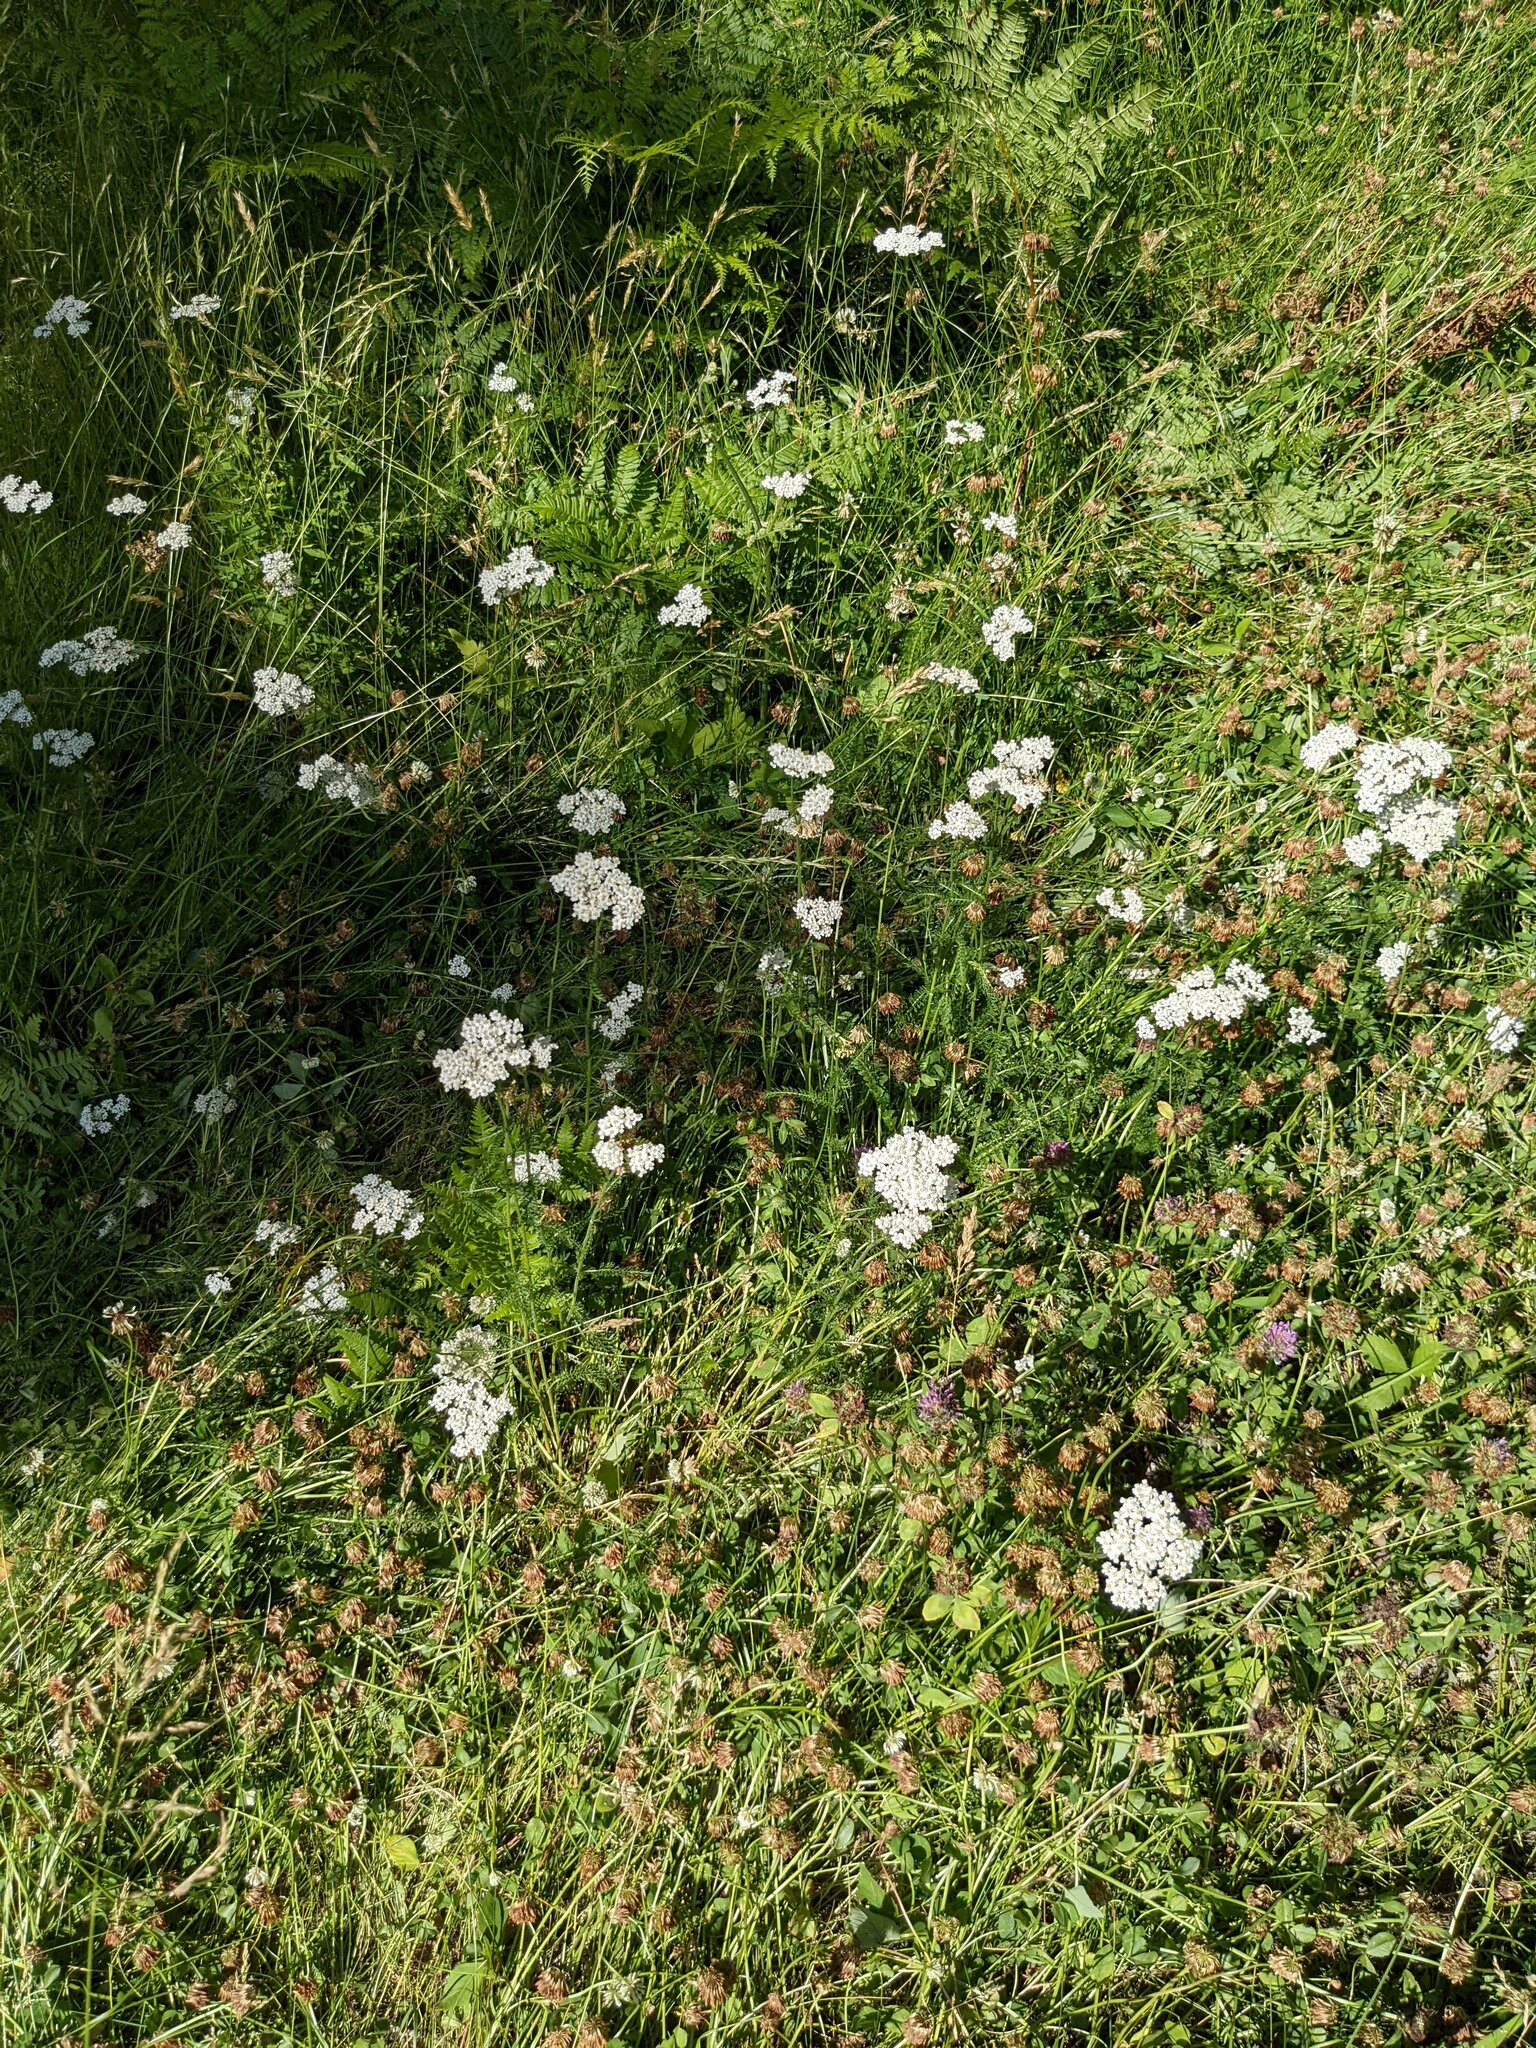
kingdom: Plantae
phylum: Tracheophyta
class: Magnoliopsida
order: Asterales
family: Asteraceae
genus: Achillea
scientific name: Achillea millefolium
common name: Yarrow
